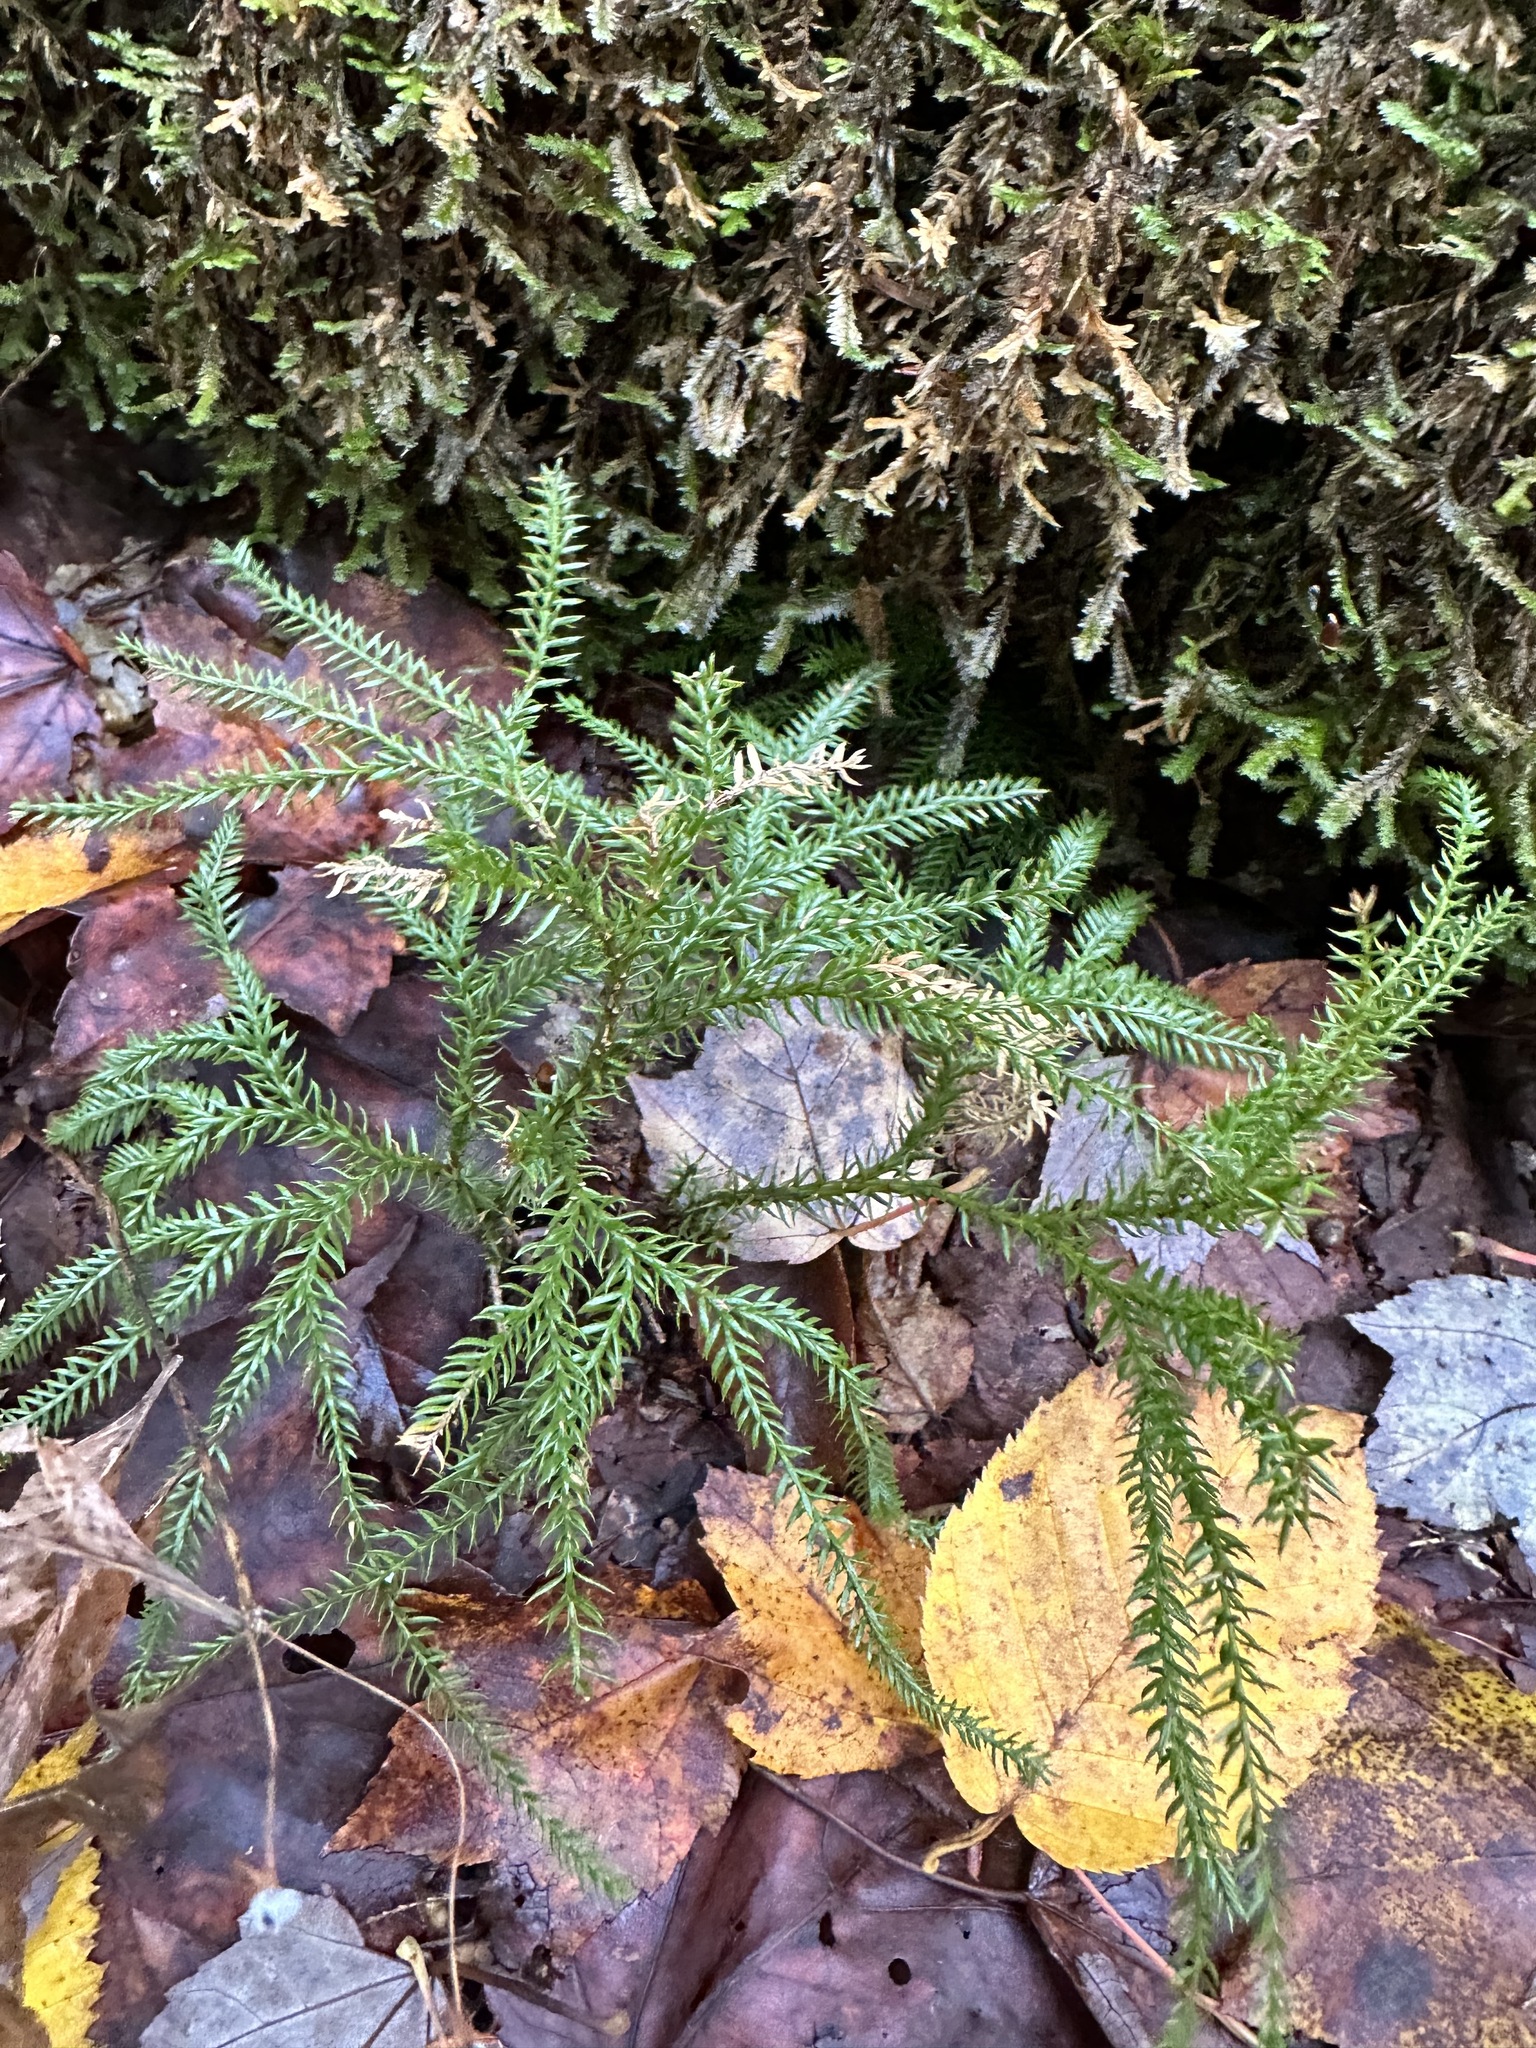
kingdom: Plantae
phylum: Tracheophyta
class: Lycopodiopsida
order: Lycopodiales
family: Lycopodiaceae
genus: Dendrolycopodium
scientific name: Dendrolycopodium dendroideum
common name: Northern tree-clubmoss
